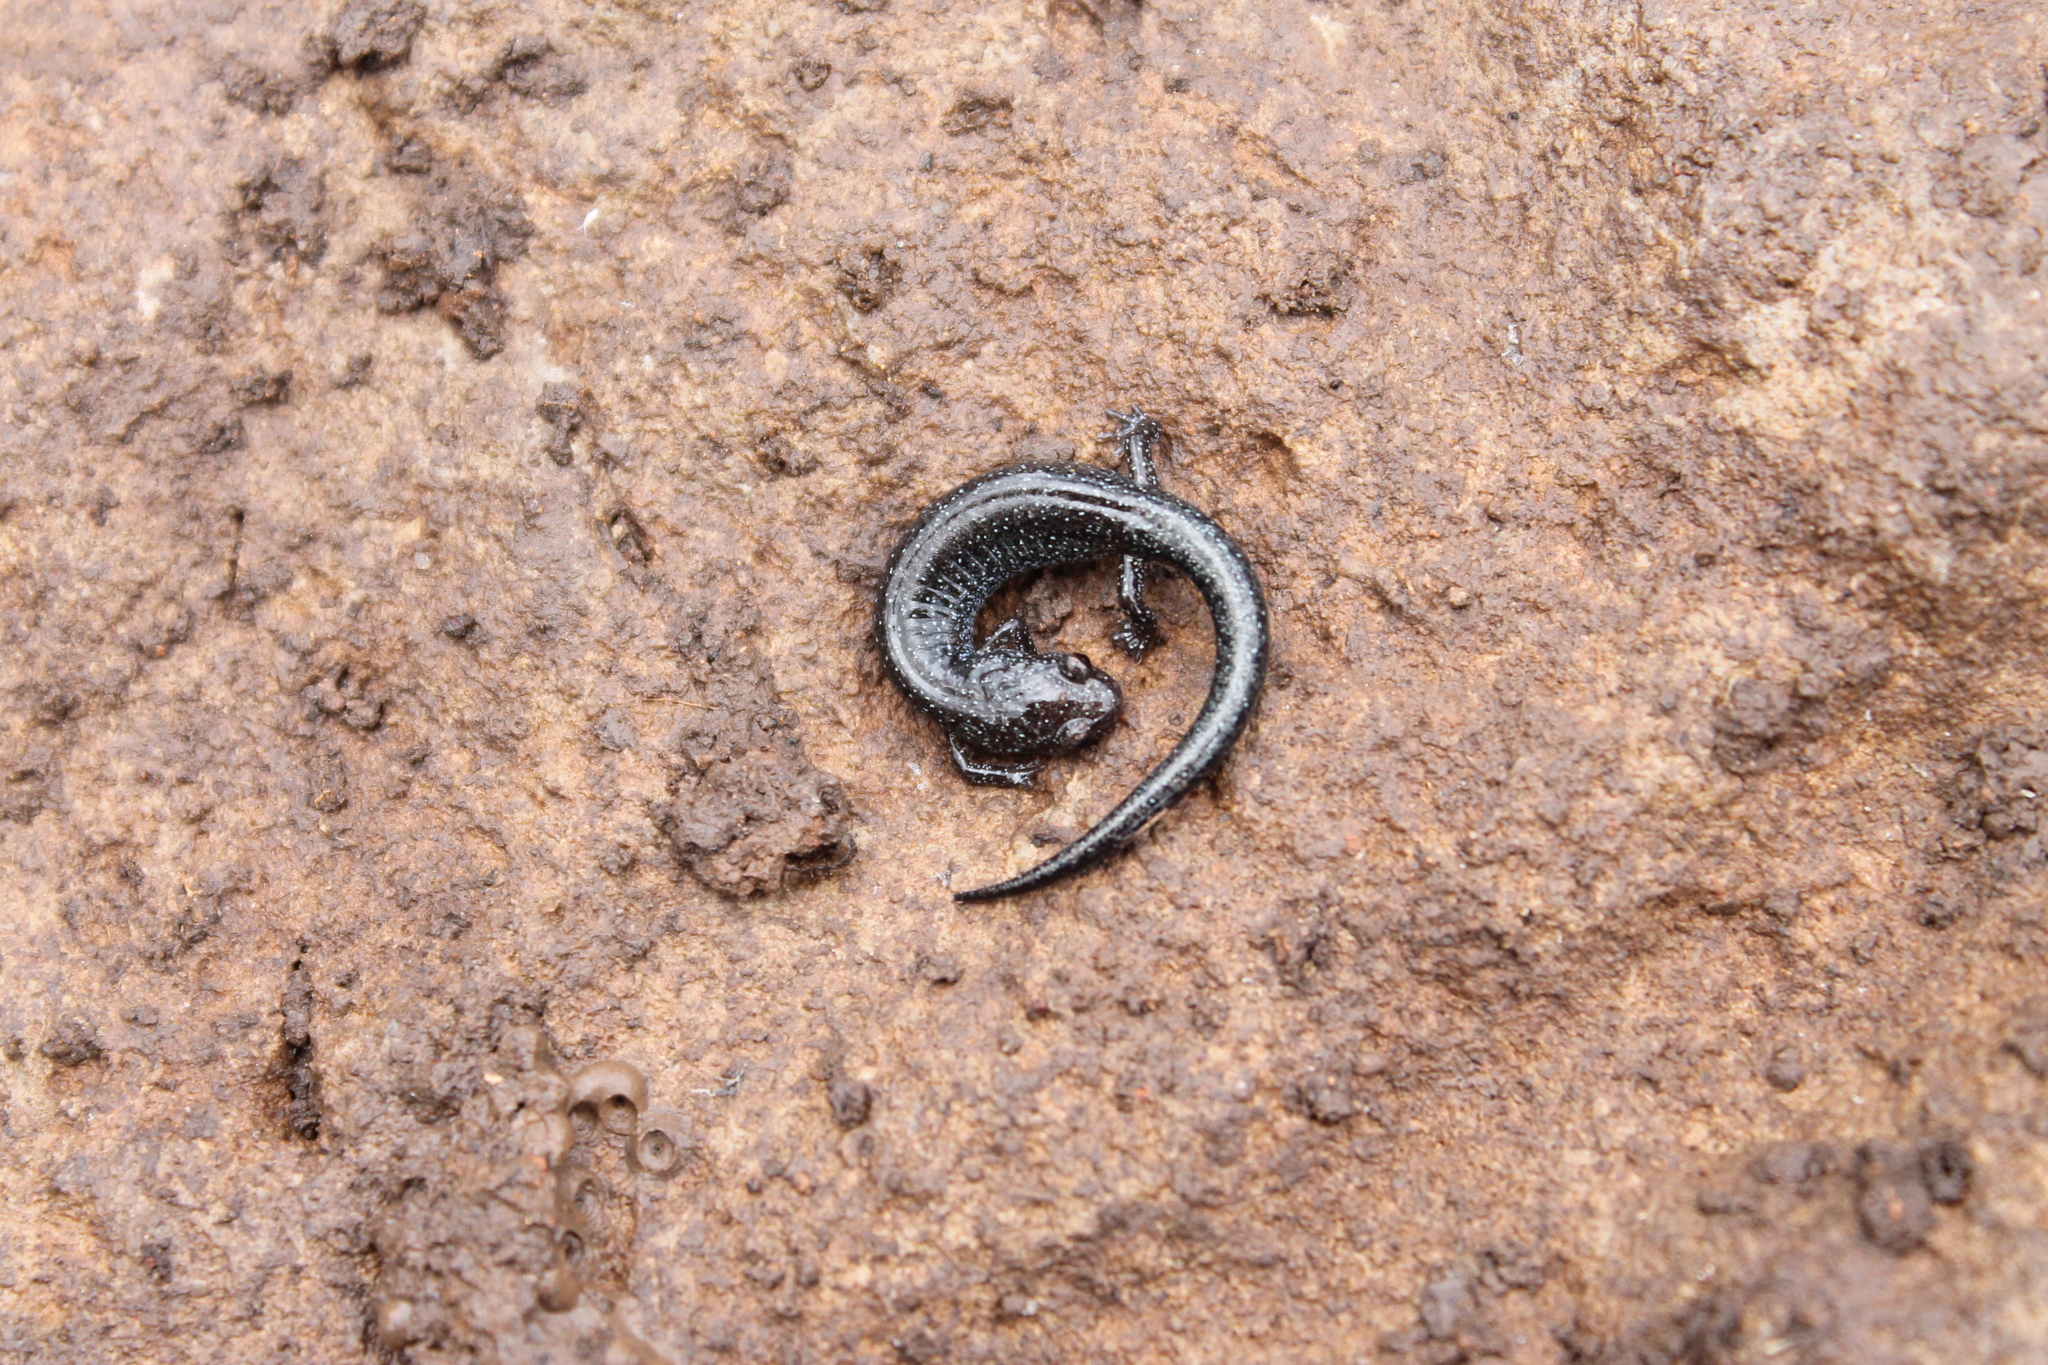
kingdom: Animalia
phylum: Chordata
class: Amphibia
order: Caudata
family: Plethodontidae
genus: Plethodon
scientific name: Plethodon dorsalis
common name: Northern zigzag salamander
